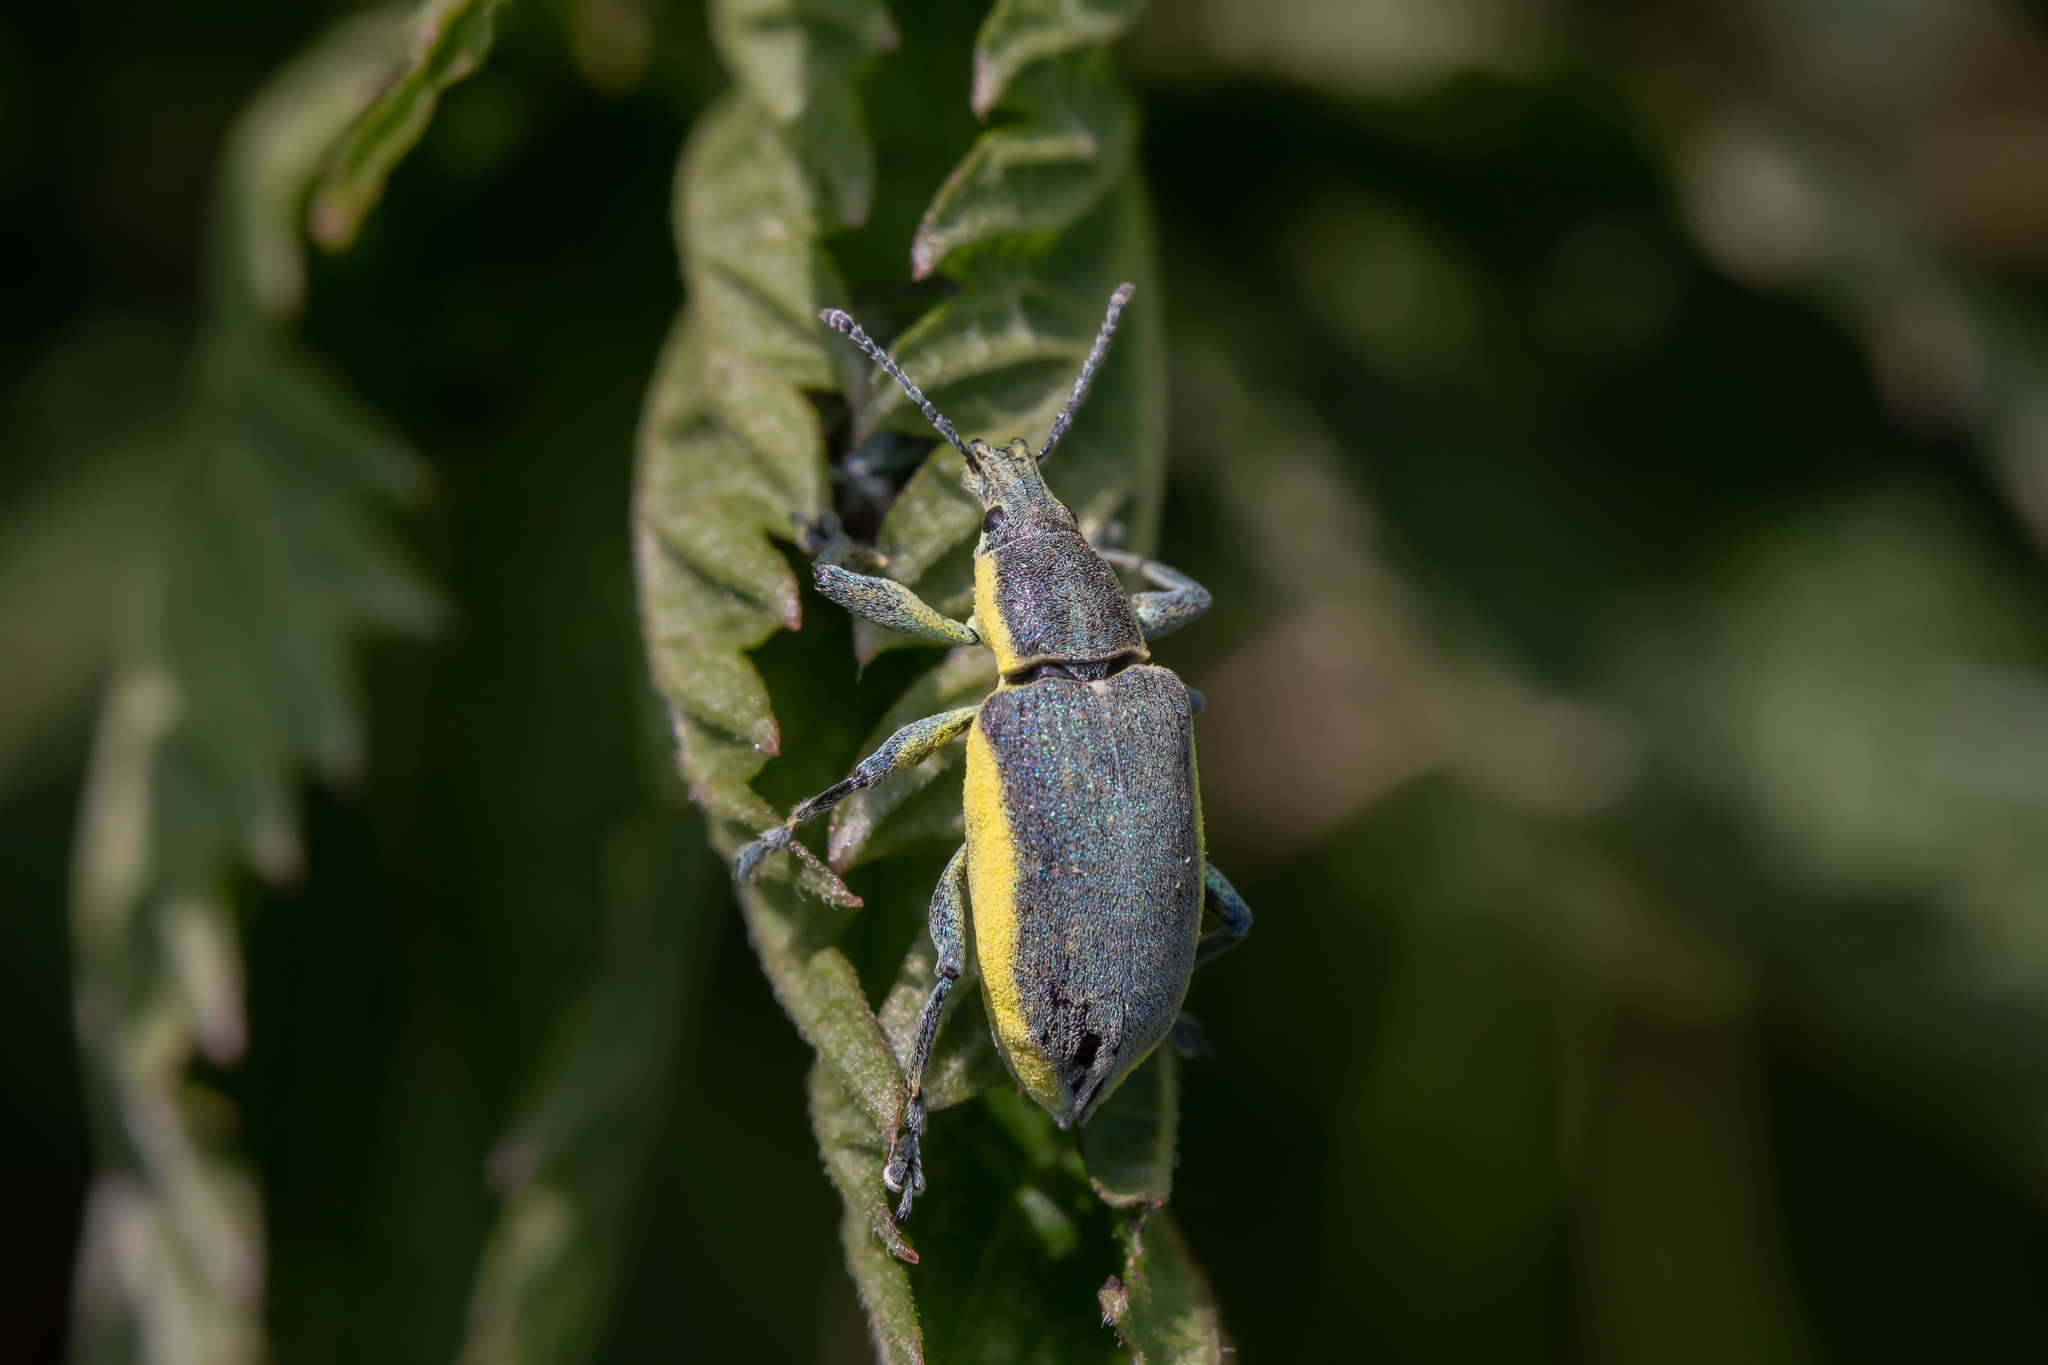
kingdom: Animalia
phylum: Arthropoda
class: Insecta
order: Coleoptera
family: Curculionidae
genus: Chlorophanus
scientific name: Chlorophanus viridis
